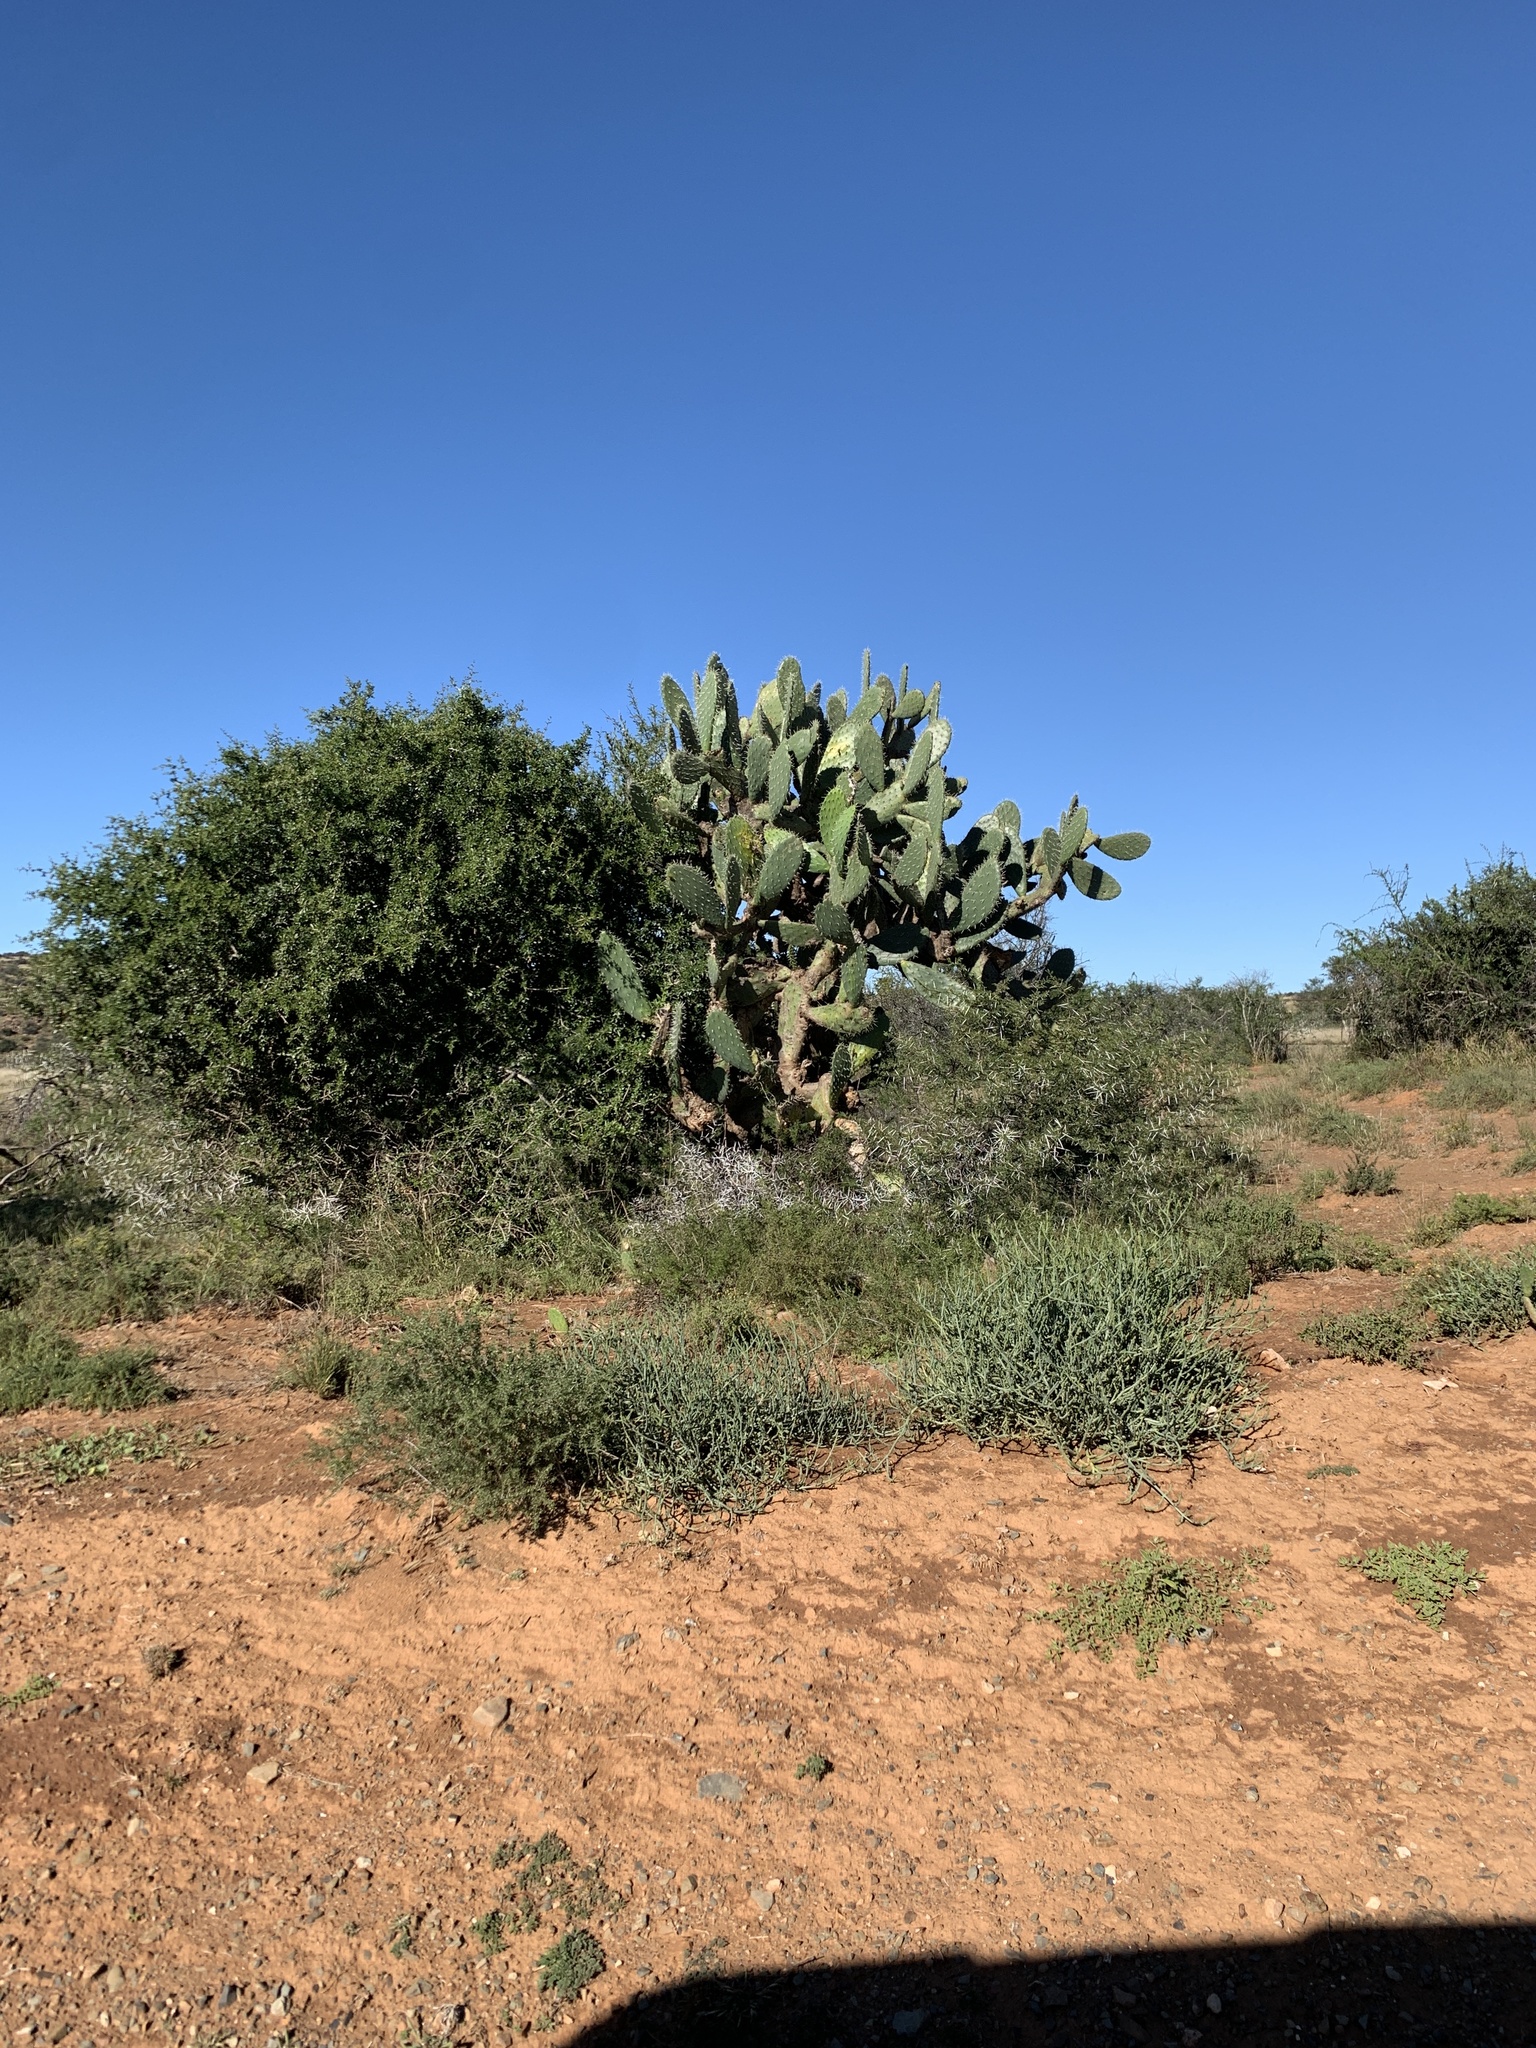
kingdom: Plantae
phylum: Tracheophyta
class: Magnoliopsida
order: Caryophyllales
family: Cactaceae
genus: Opuntia
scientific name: Opuntia ficus-indica
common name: Barbary fig
